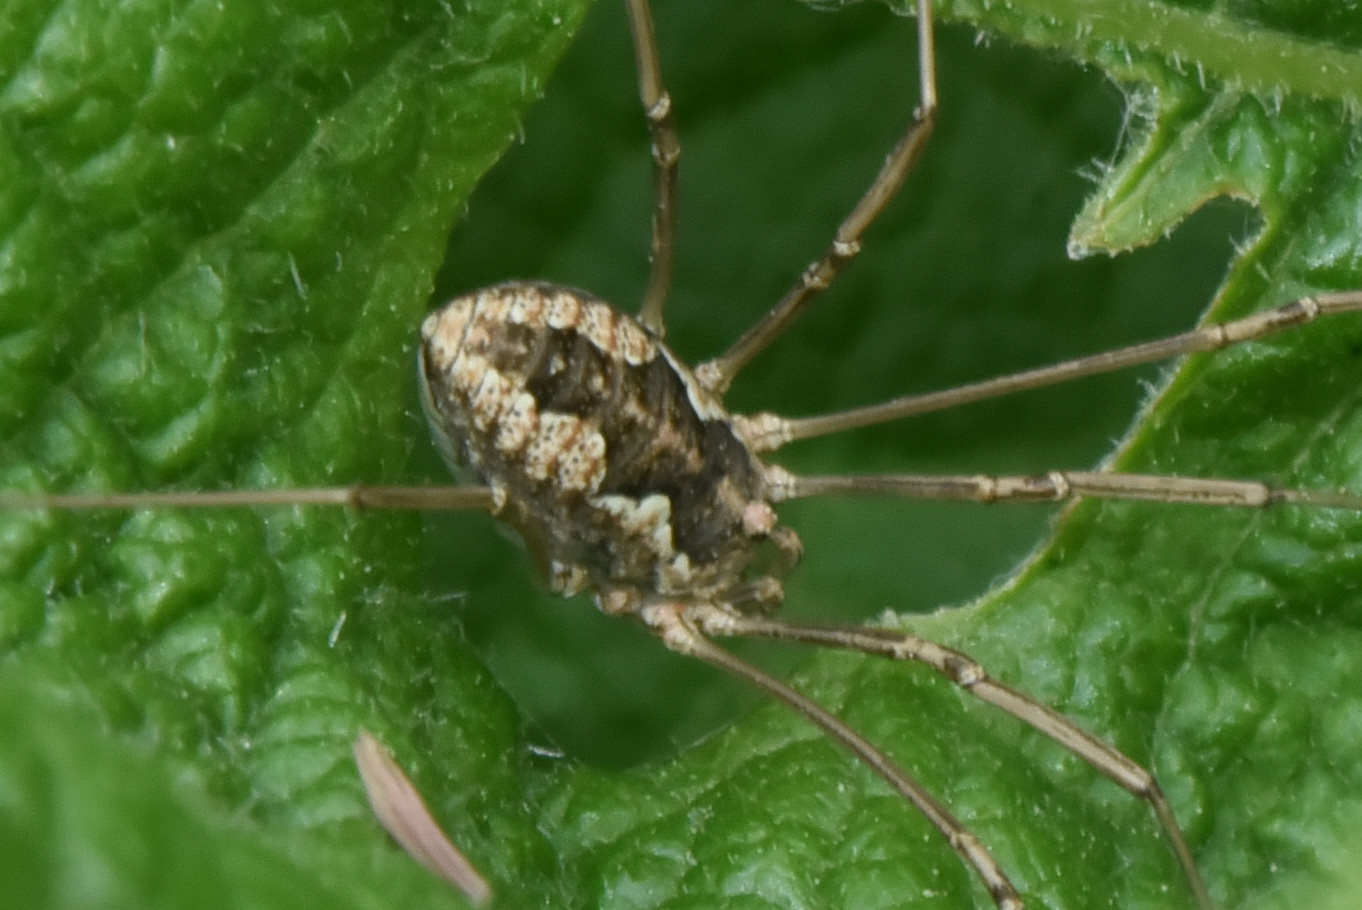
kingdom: Animalia
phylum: Arthropoda
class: Arachnida
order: Opiliones
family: Phalangiidae
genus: Phalangium
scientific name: Phalangium opilio
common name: Daddy longleg
